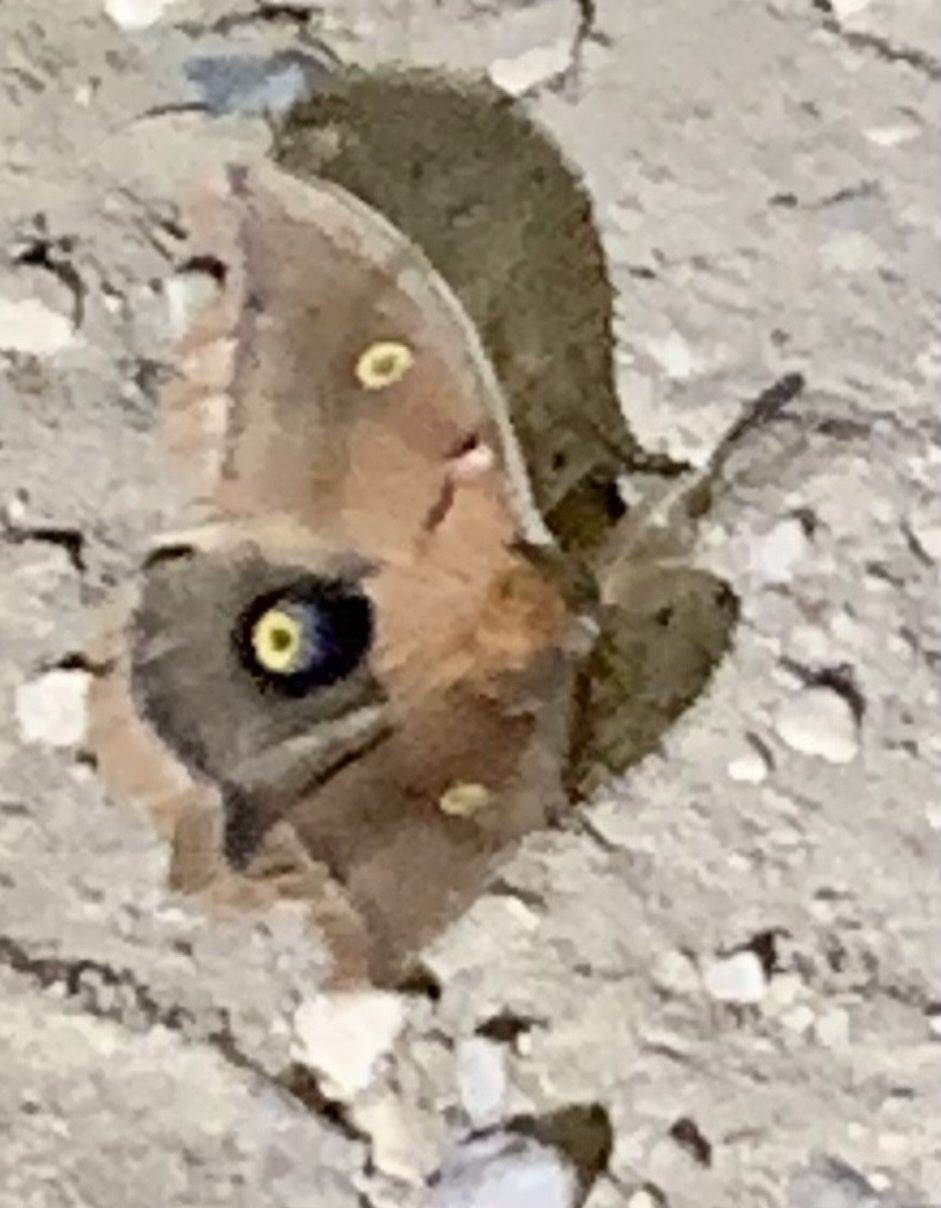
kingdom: Animalia
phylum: Arthropoda
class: Insecta
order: Lepidoptera
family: Saturniidae
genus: Antheraea
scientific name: Antheraea polyphemus
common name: Polyphemus moth
